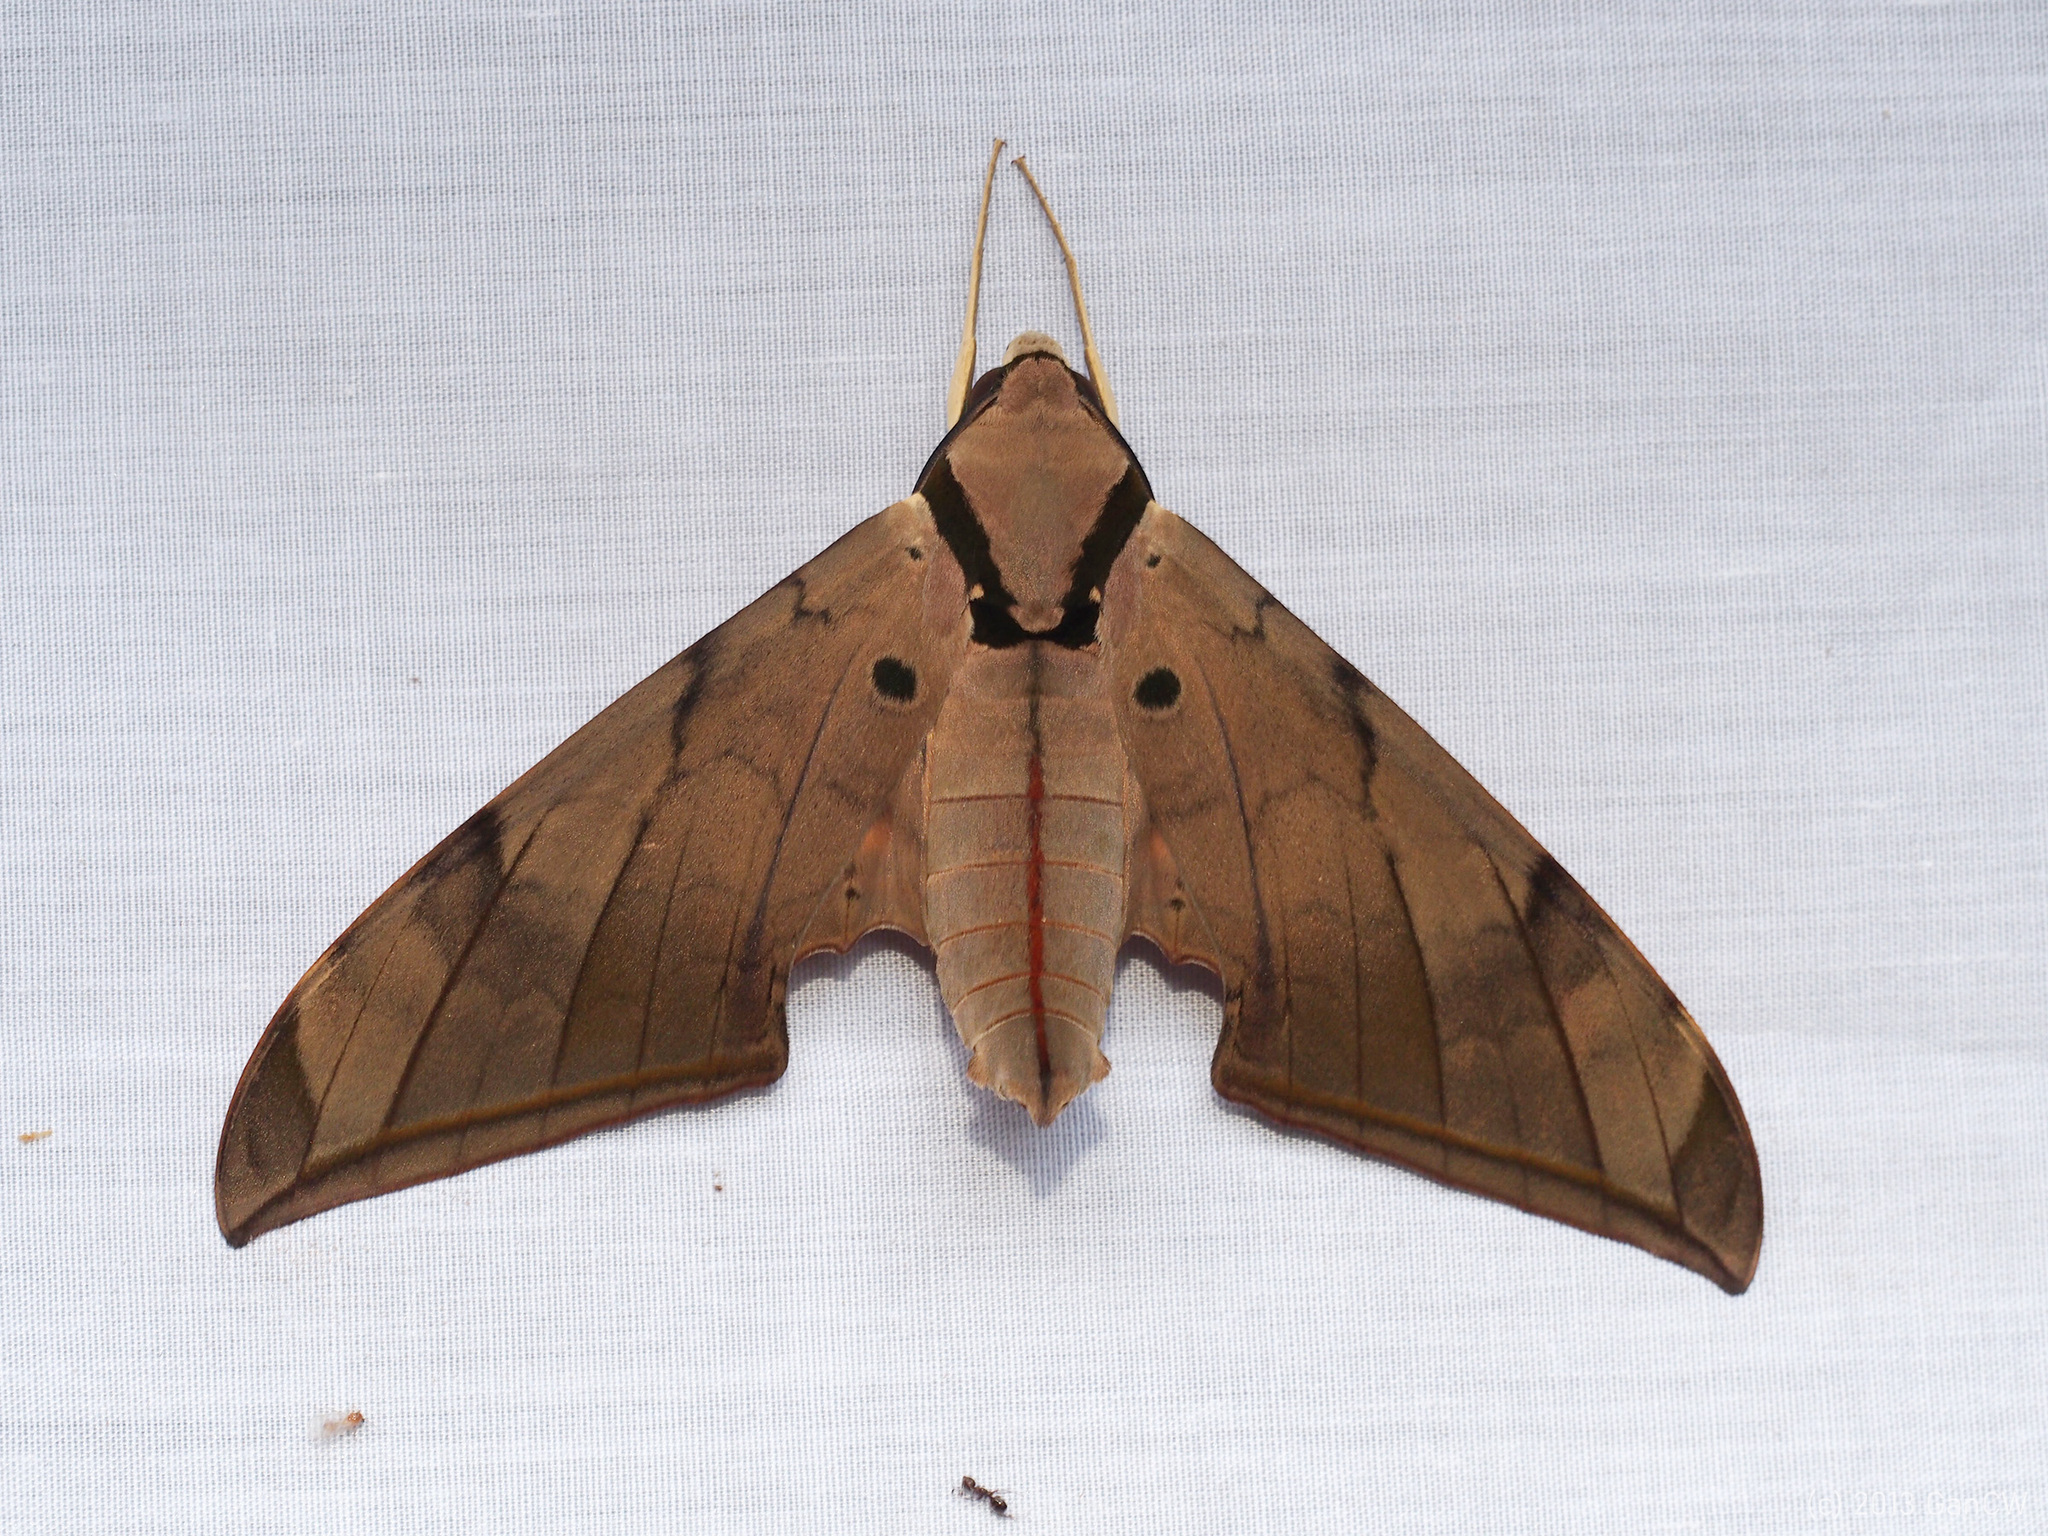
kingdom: Animalia
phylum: Arthropoda
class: Insecta
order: Lepidoptera
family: Sphingidae
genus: Ambulyx
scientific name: Ambulyx pryeri
